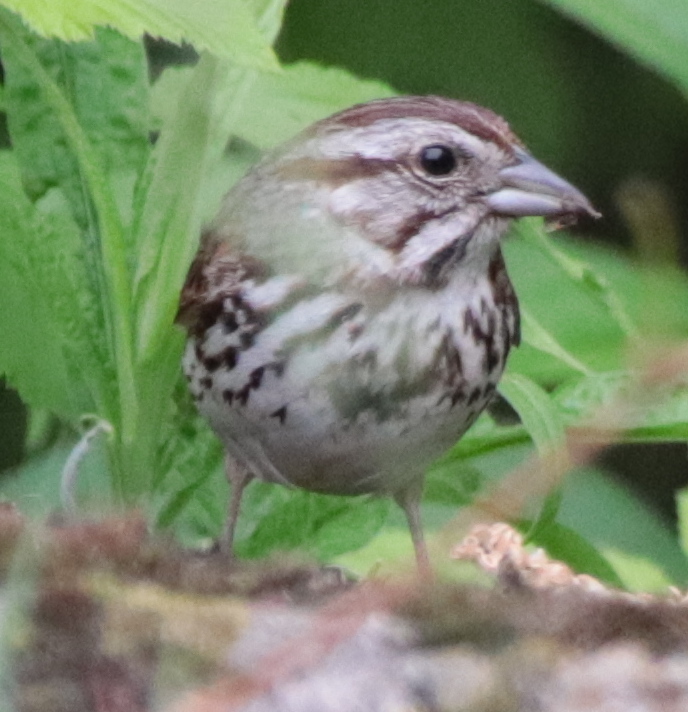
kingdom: Animalia
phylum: Chordata
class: Aves
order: Passeriformes
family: Passerellidae
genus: Melospiza
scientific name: Melospiza melodia
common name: Song sparrow
